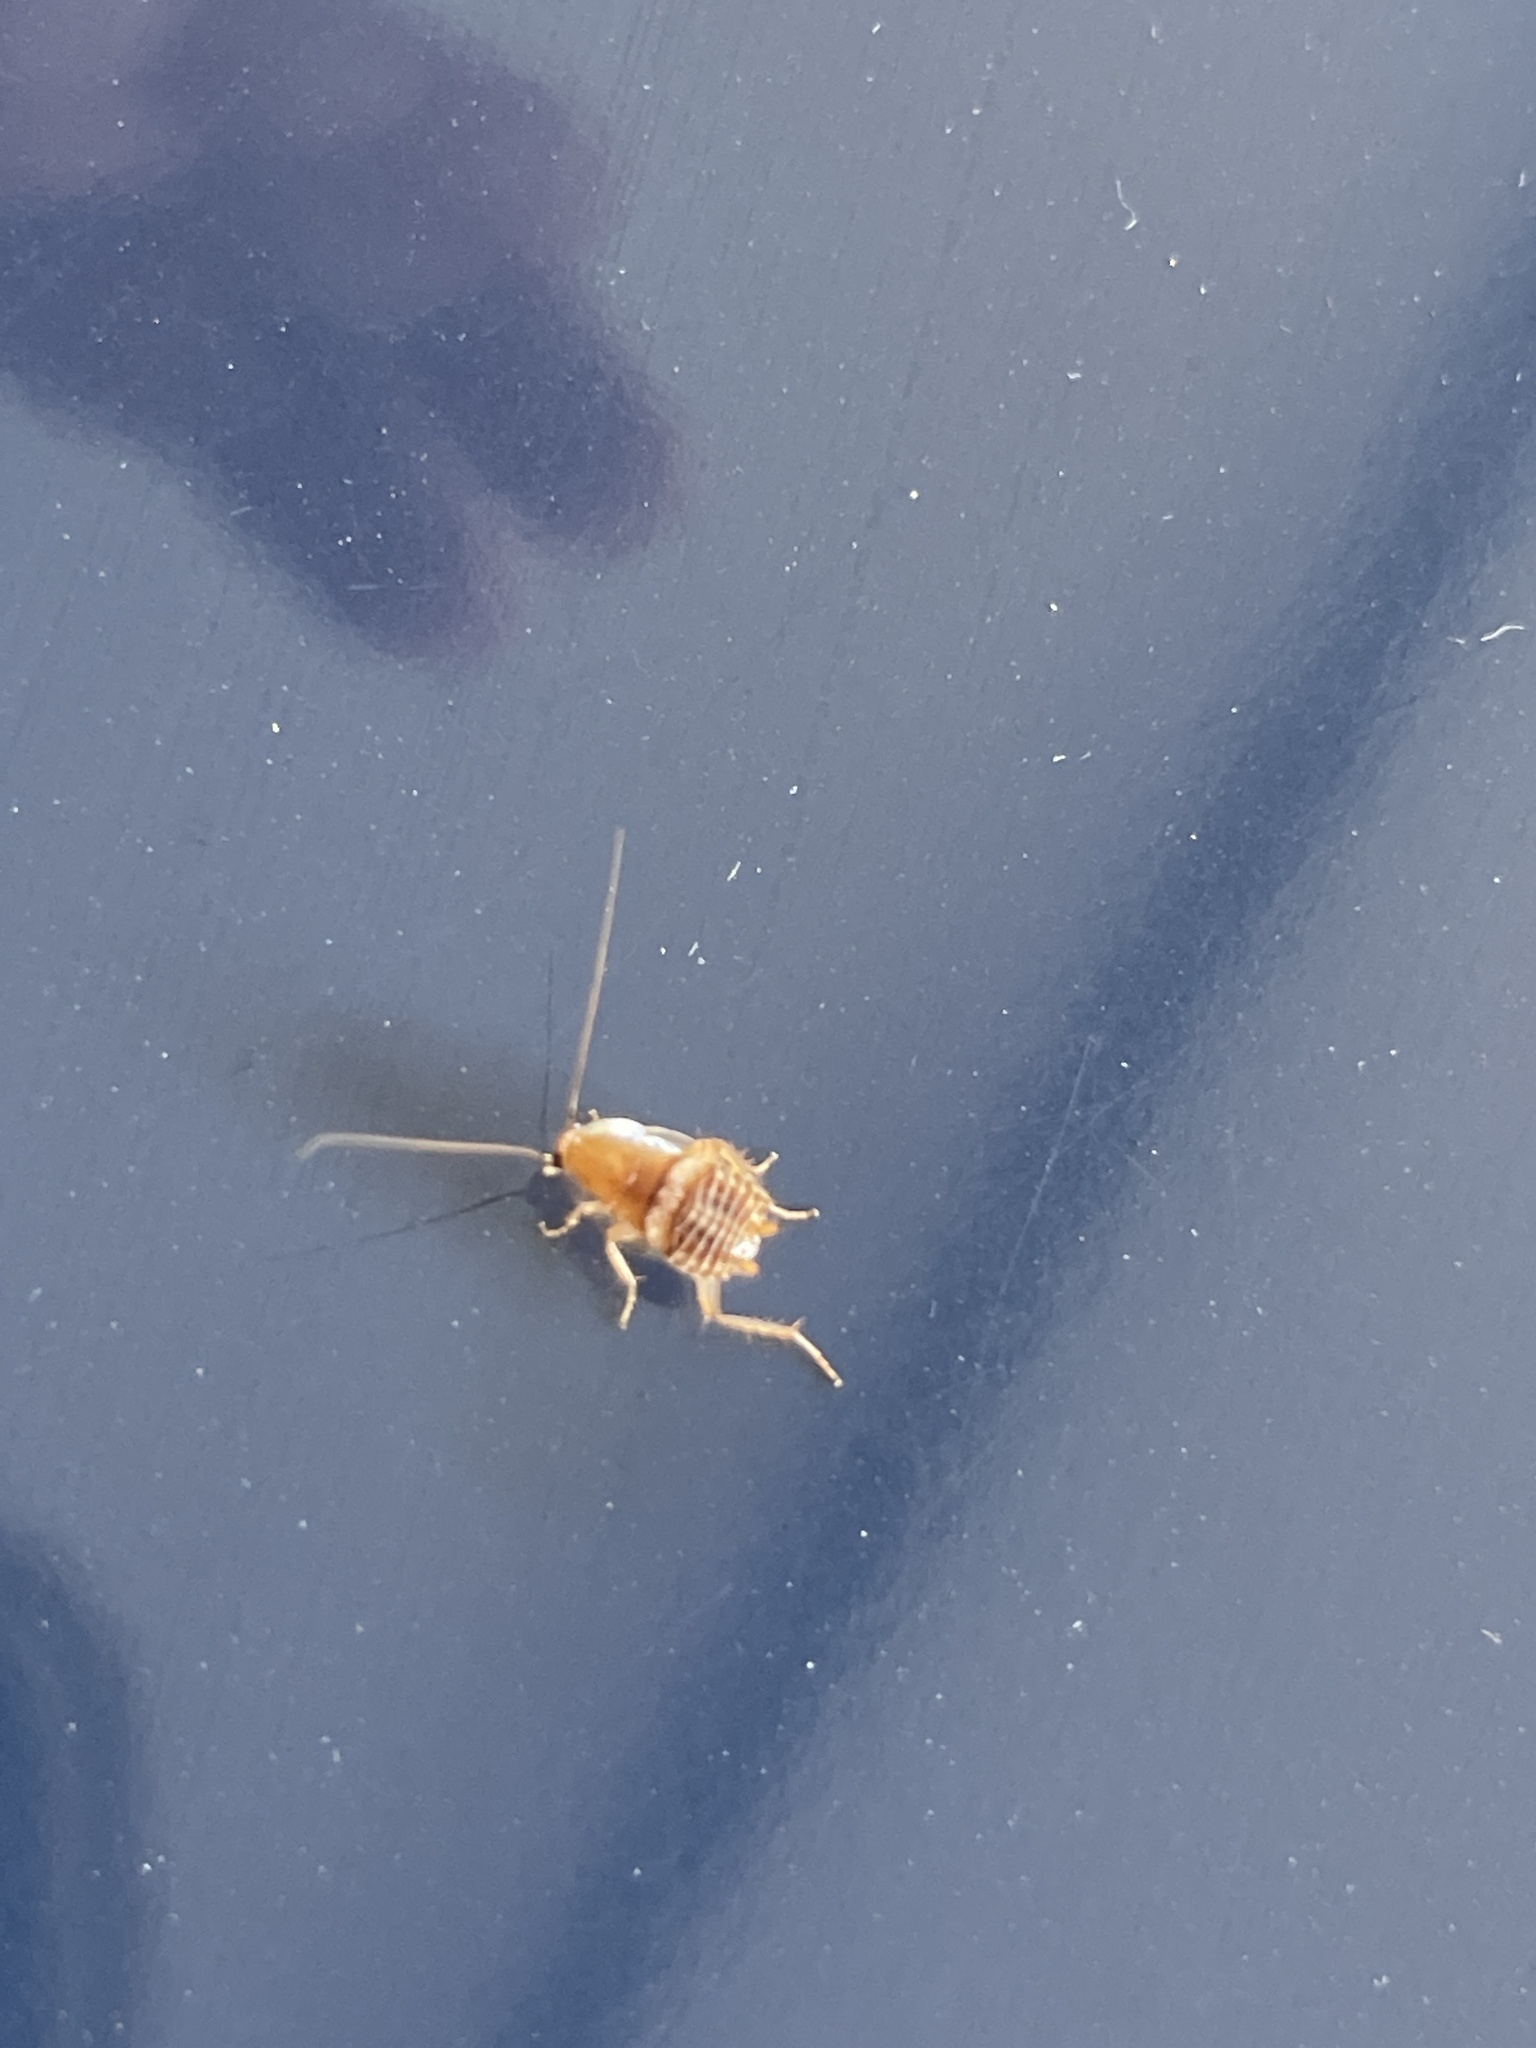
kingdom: Animalia
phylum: Arthropoda
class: Insecta
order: Blattodea
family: Ectobiidae
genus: Planuncus
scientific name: Planuncus tingitanus
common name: Variable cockroach
